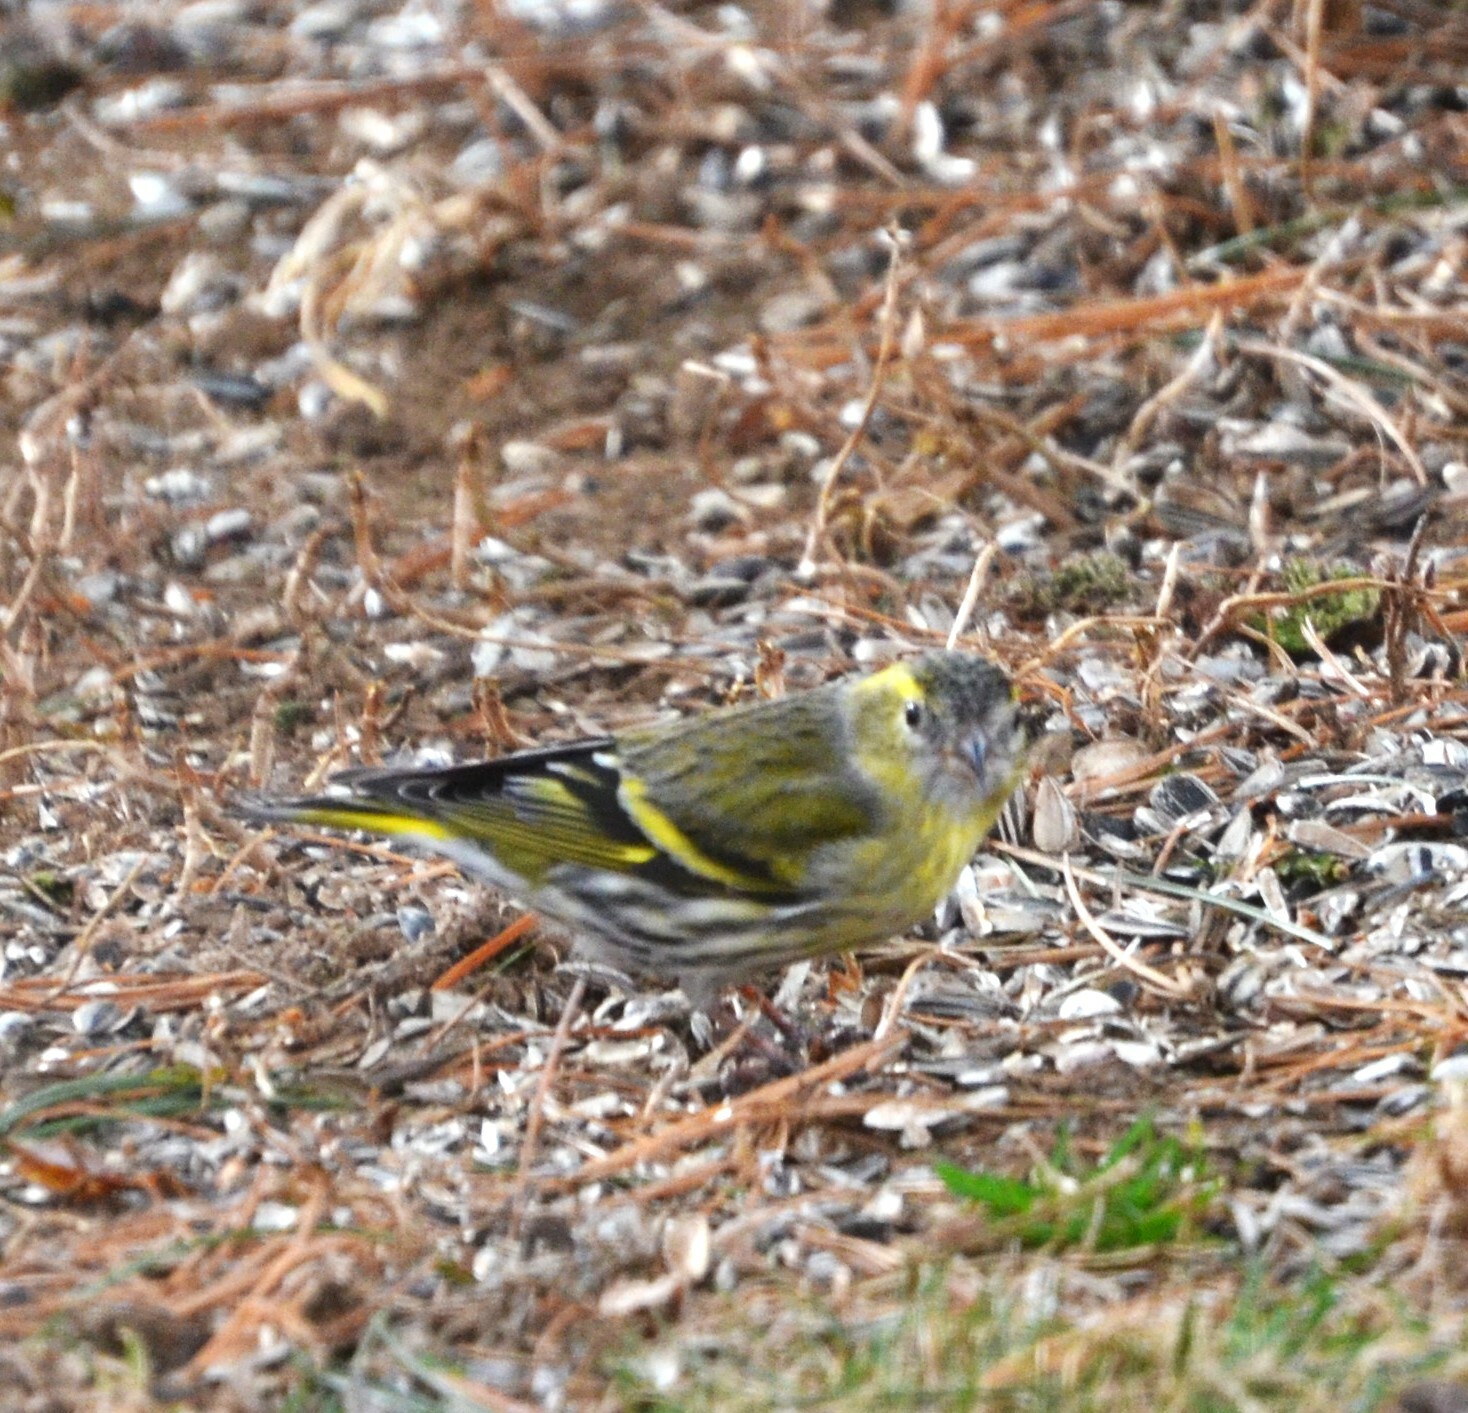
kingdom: Animalia
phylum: Chordata
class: Aves
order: Passeriformes
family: Fringillidae
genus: Spinus
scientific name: Spinus spinus
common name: Eurasian siskin
